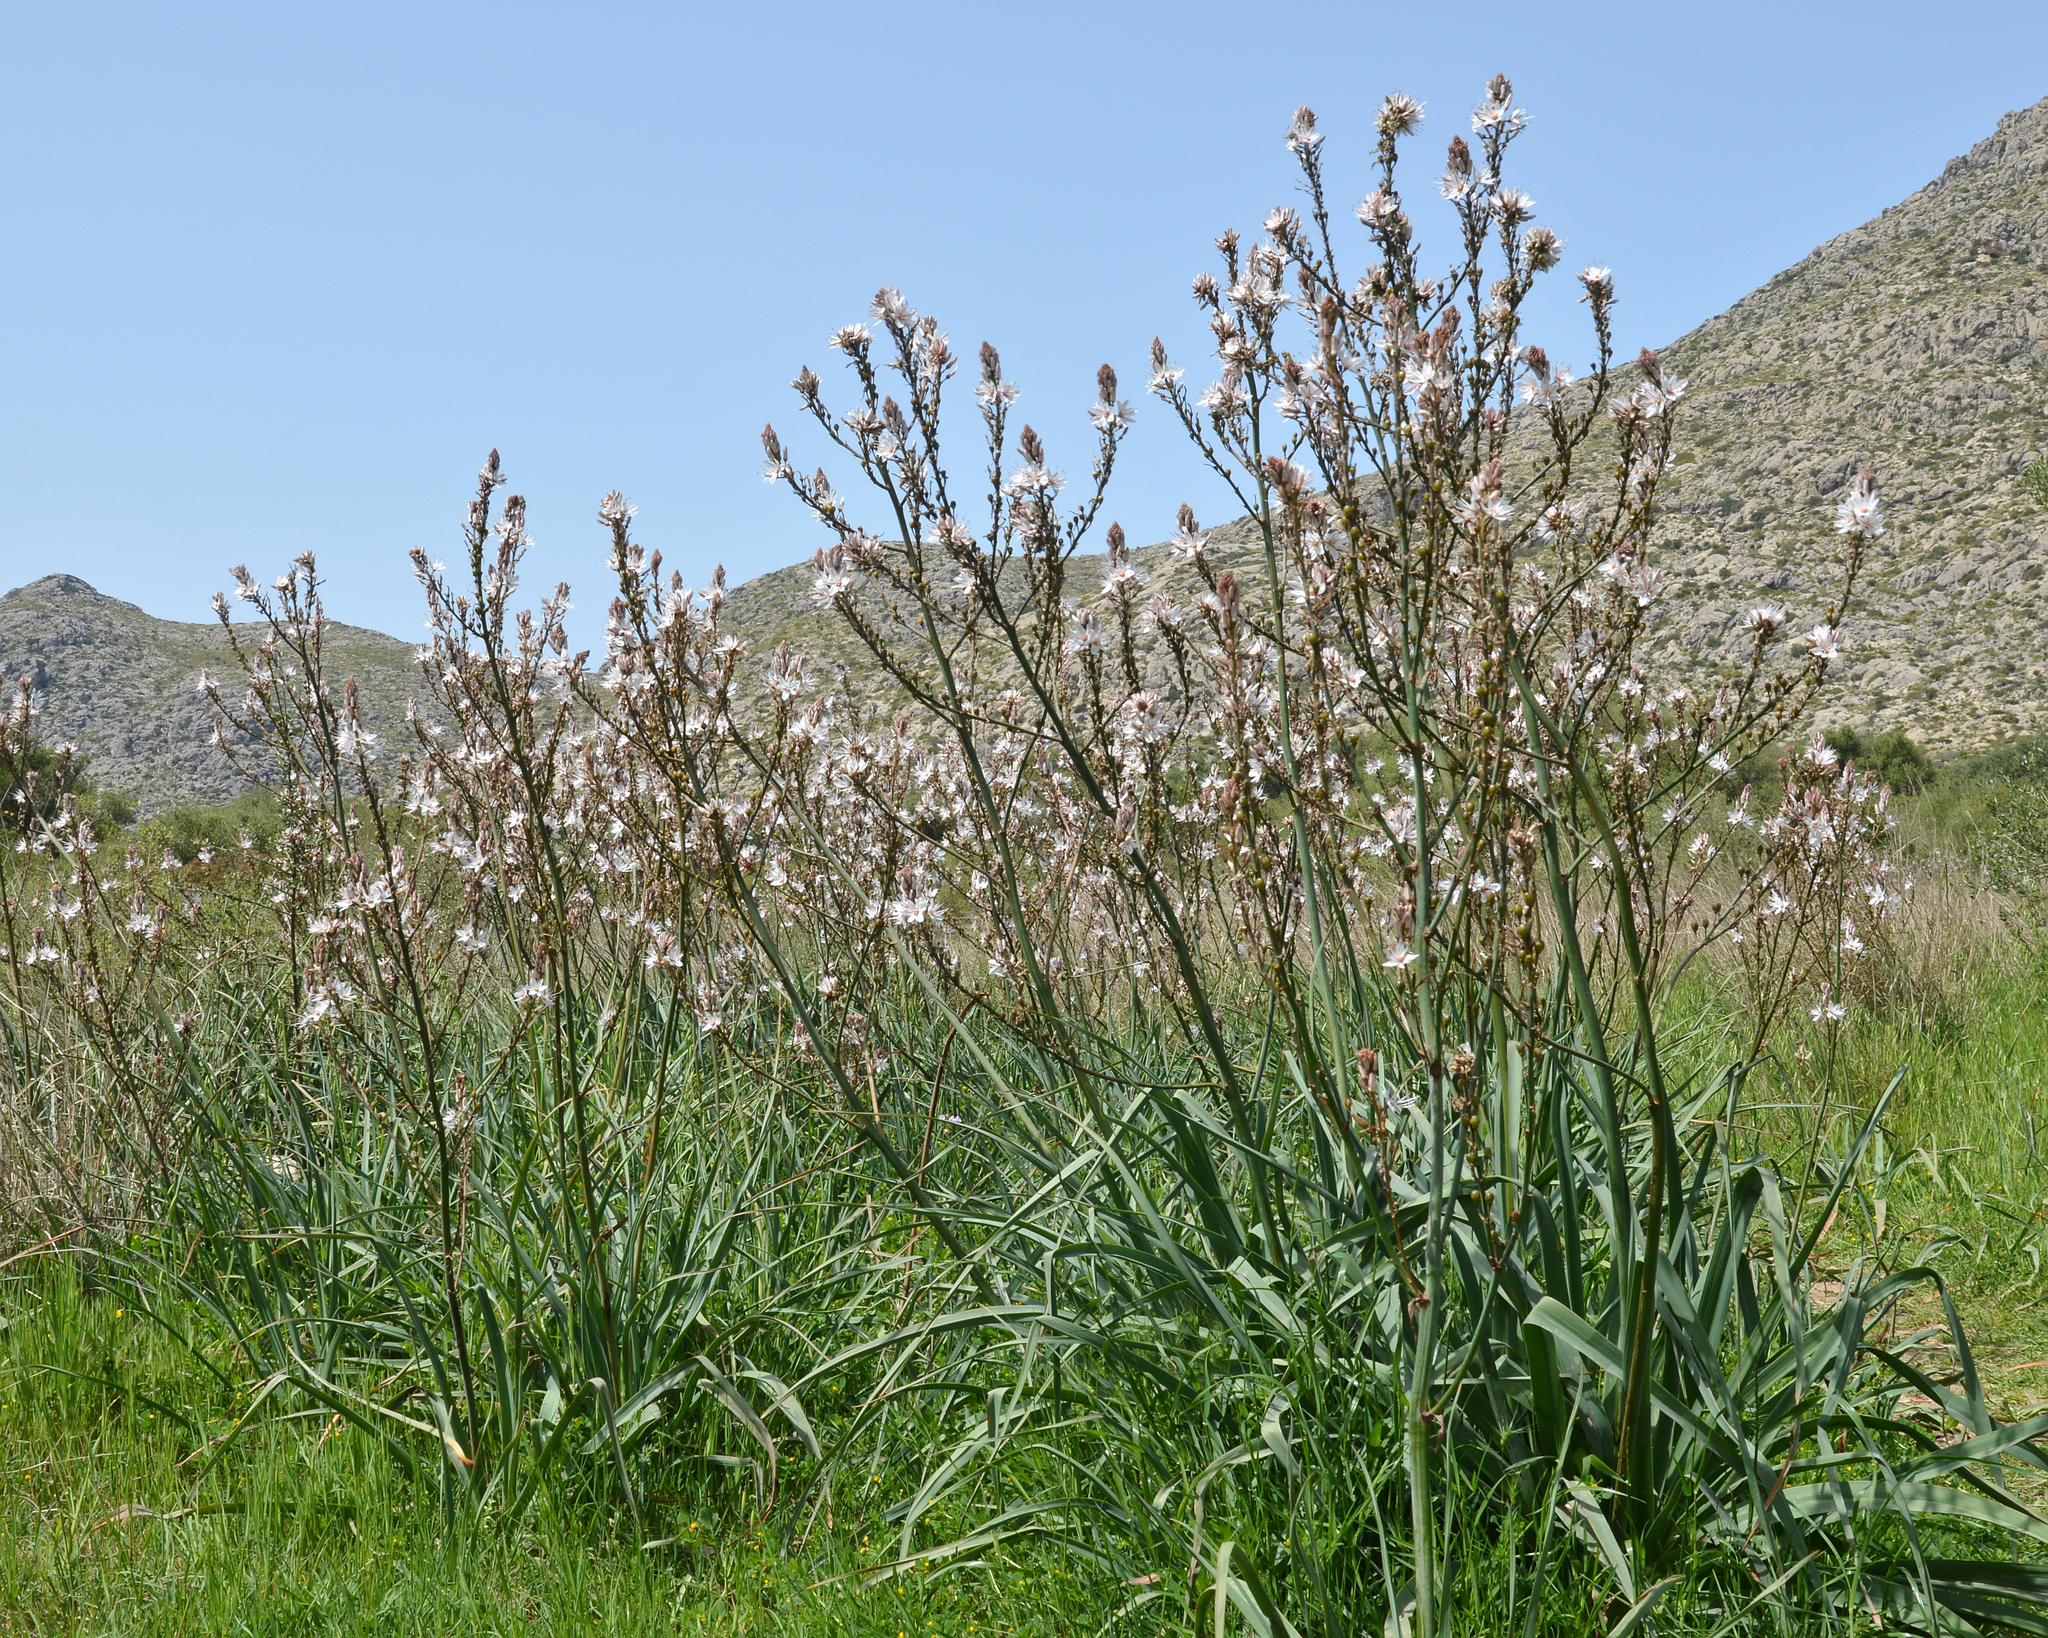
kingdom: Plantae
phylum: Tracheophyta
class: Liliopsida
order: Asparagales
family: Asphodelaceae
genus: Asphodelus
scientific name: Asphodelus ramosus
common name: Silverrod
